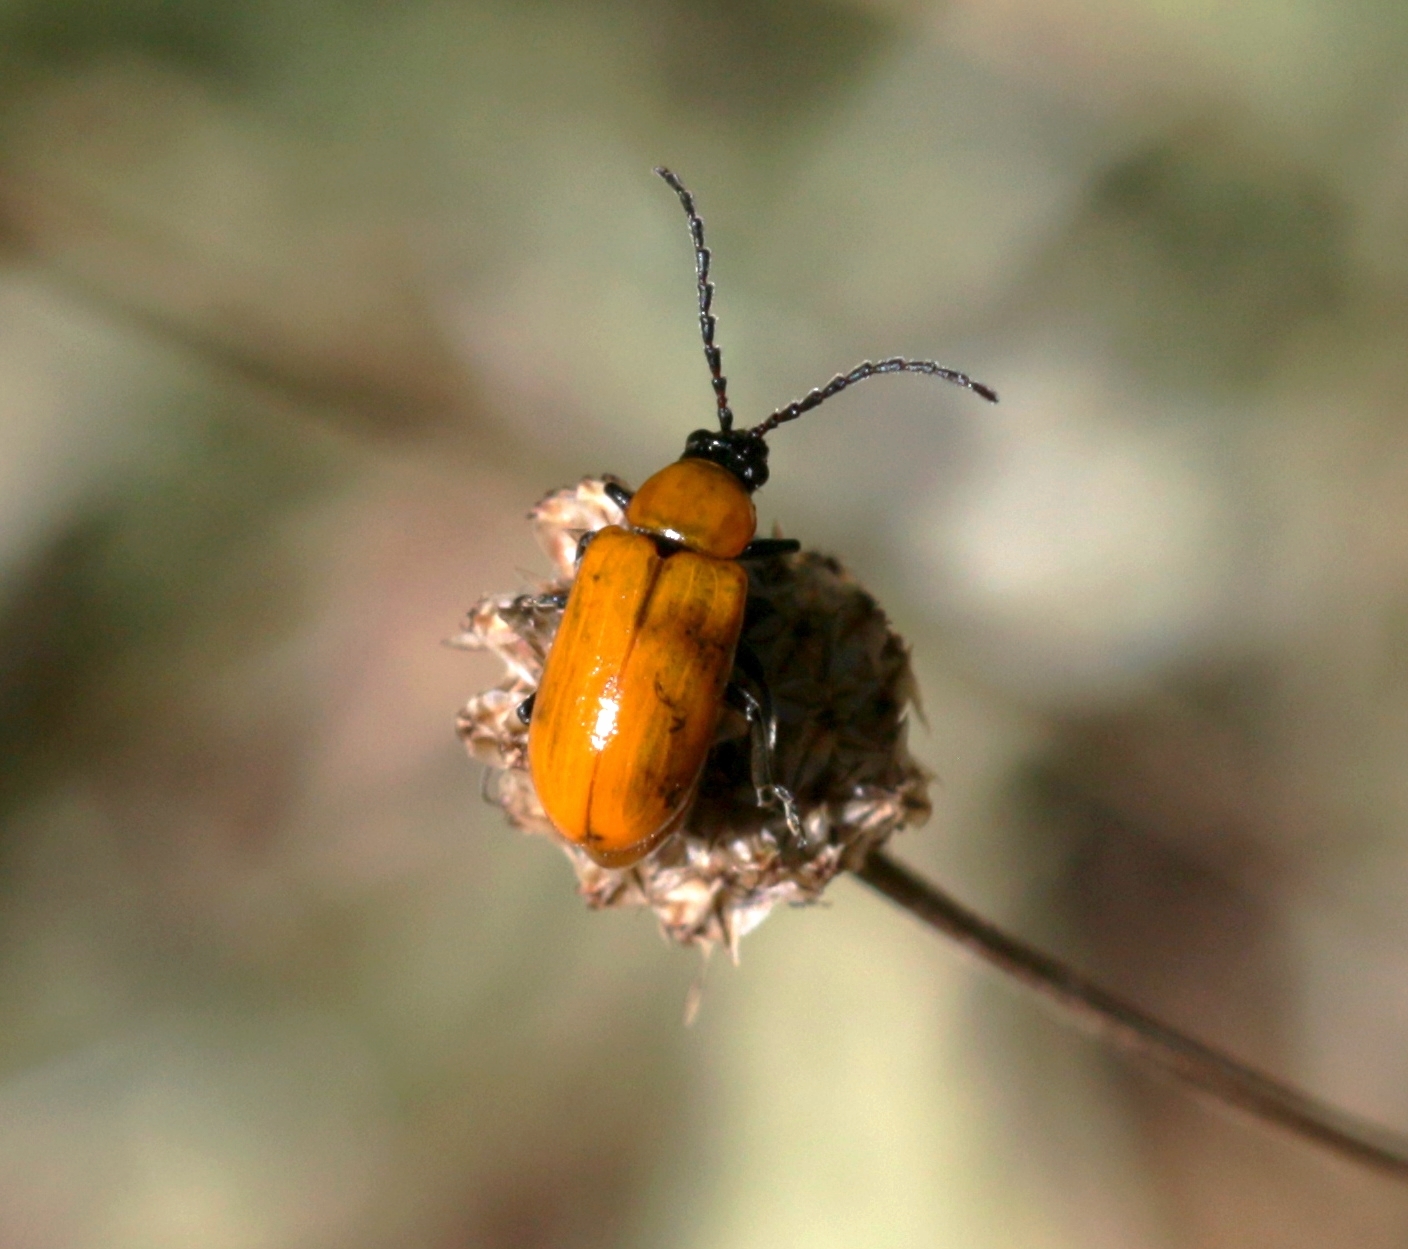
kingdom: Animalia
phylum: Arthropoda
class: Insecta
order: Coleoptera
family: Chrysomelidae
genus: Exosoma
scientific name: Exosoma lusitanicum
